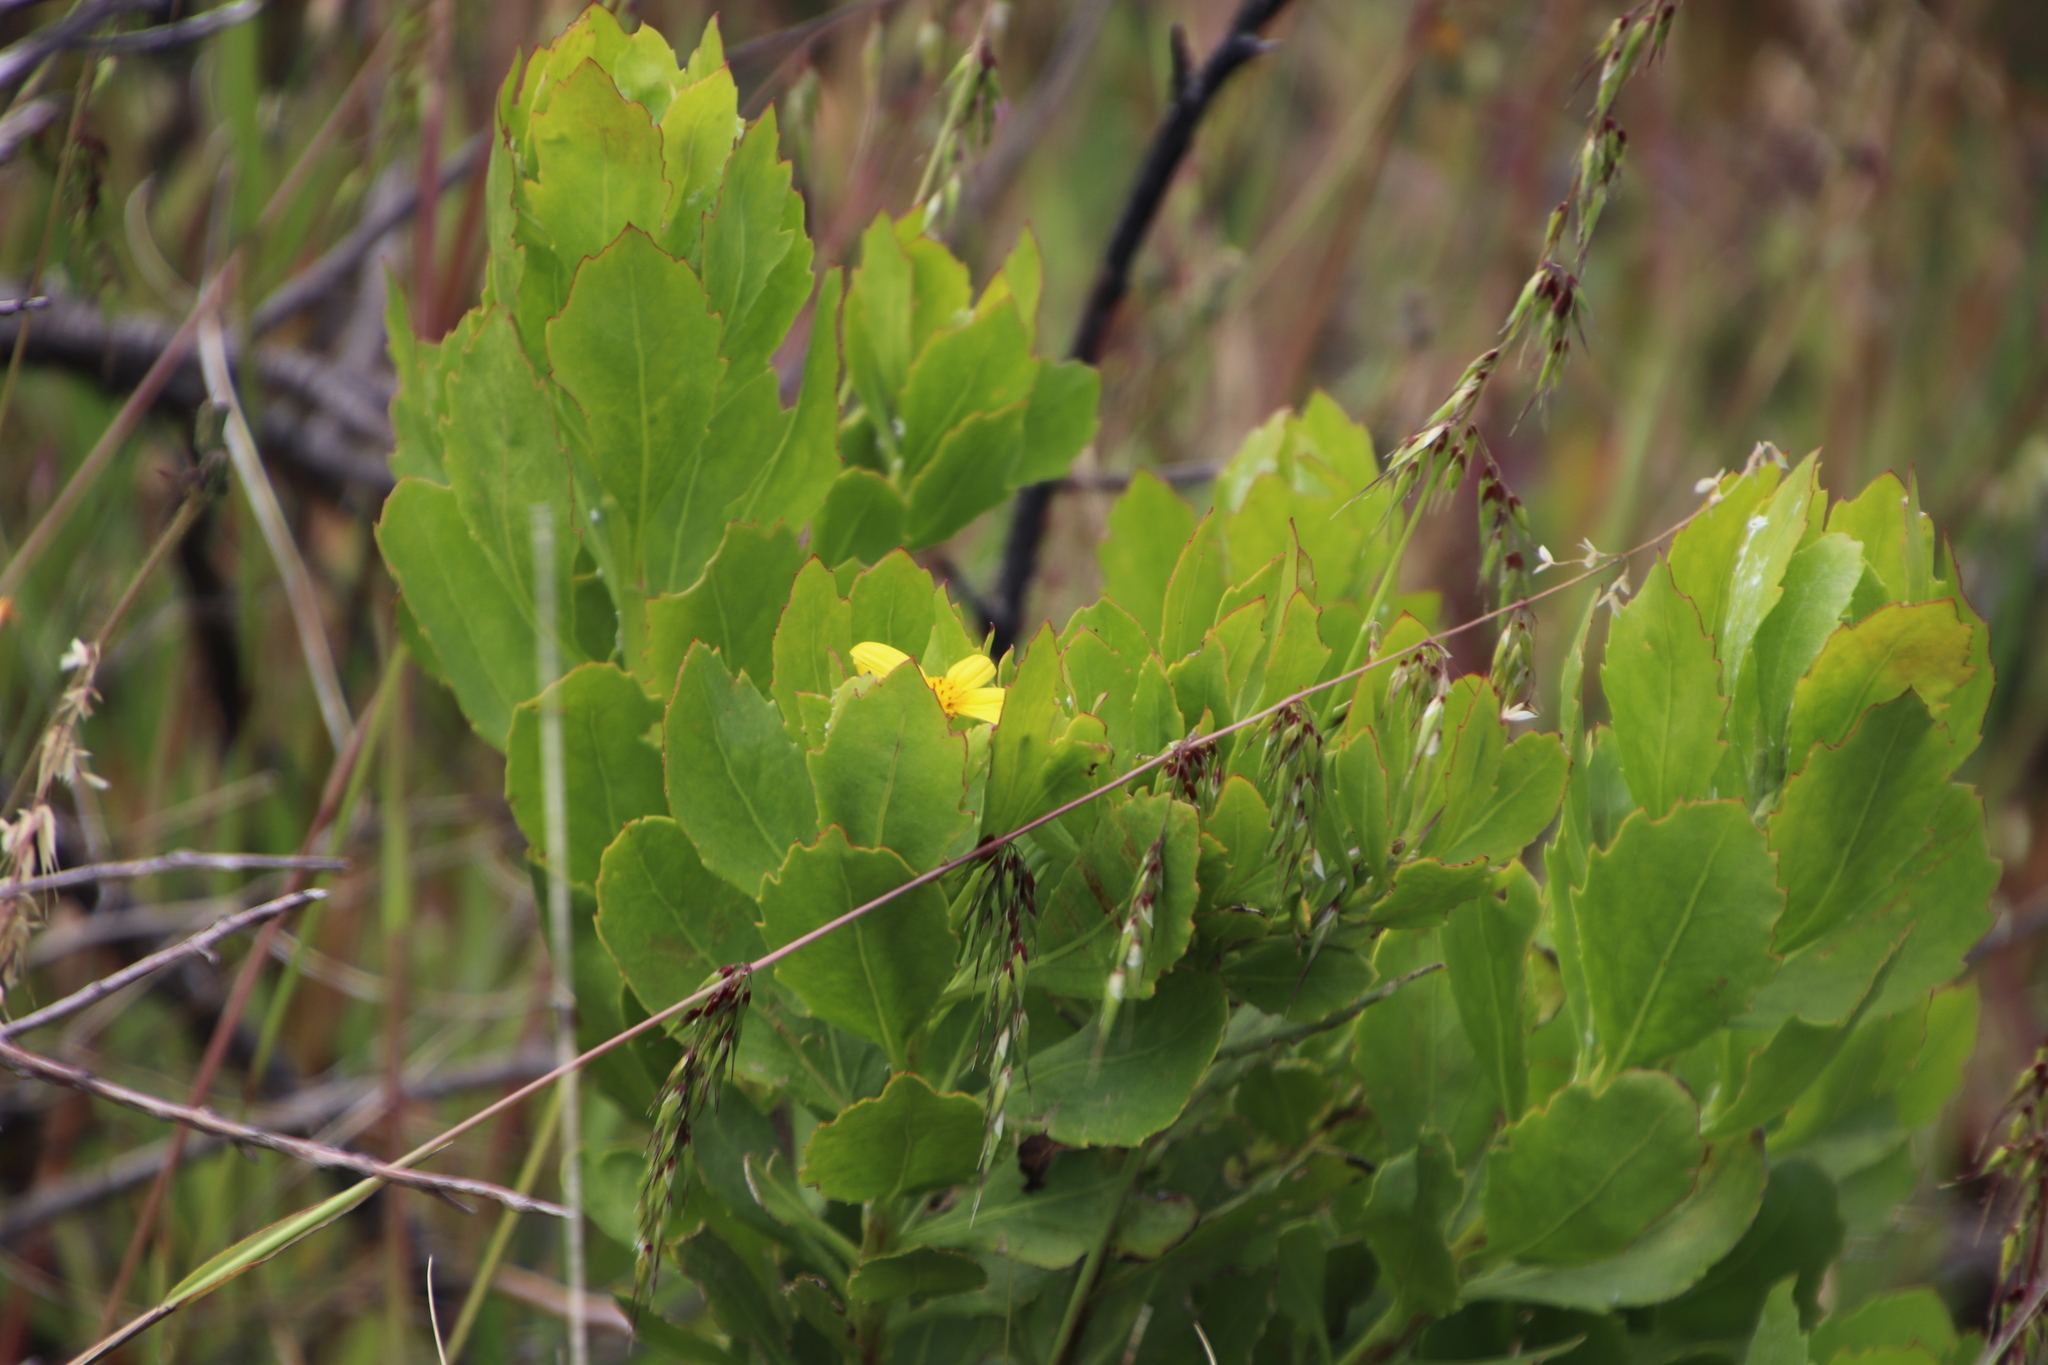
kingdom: Plantae
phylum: Tracheophyta
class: Magnoliopsida
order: Asterales
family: Asteraceae
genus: Osteospermum
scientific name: Osteospermum moniliferum
